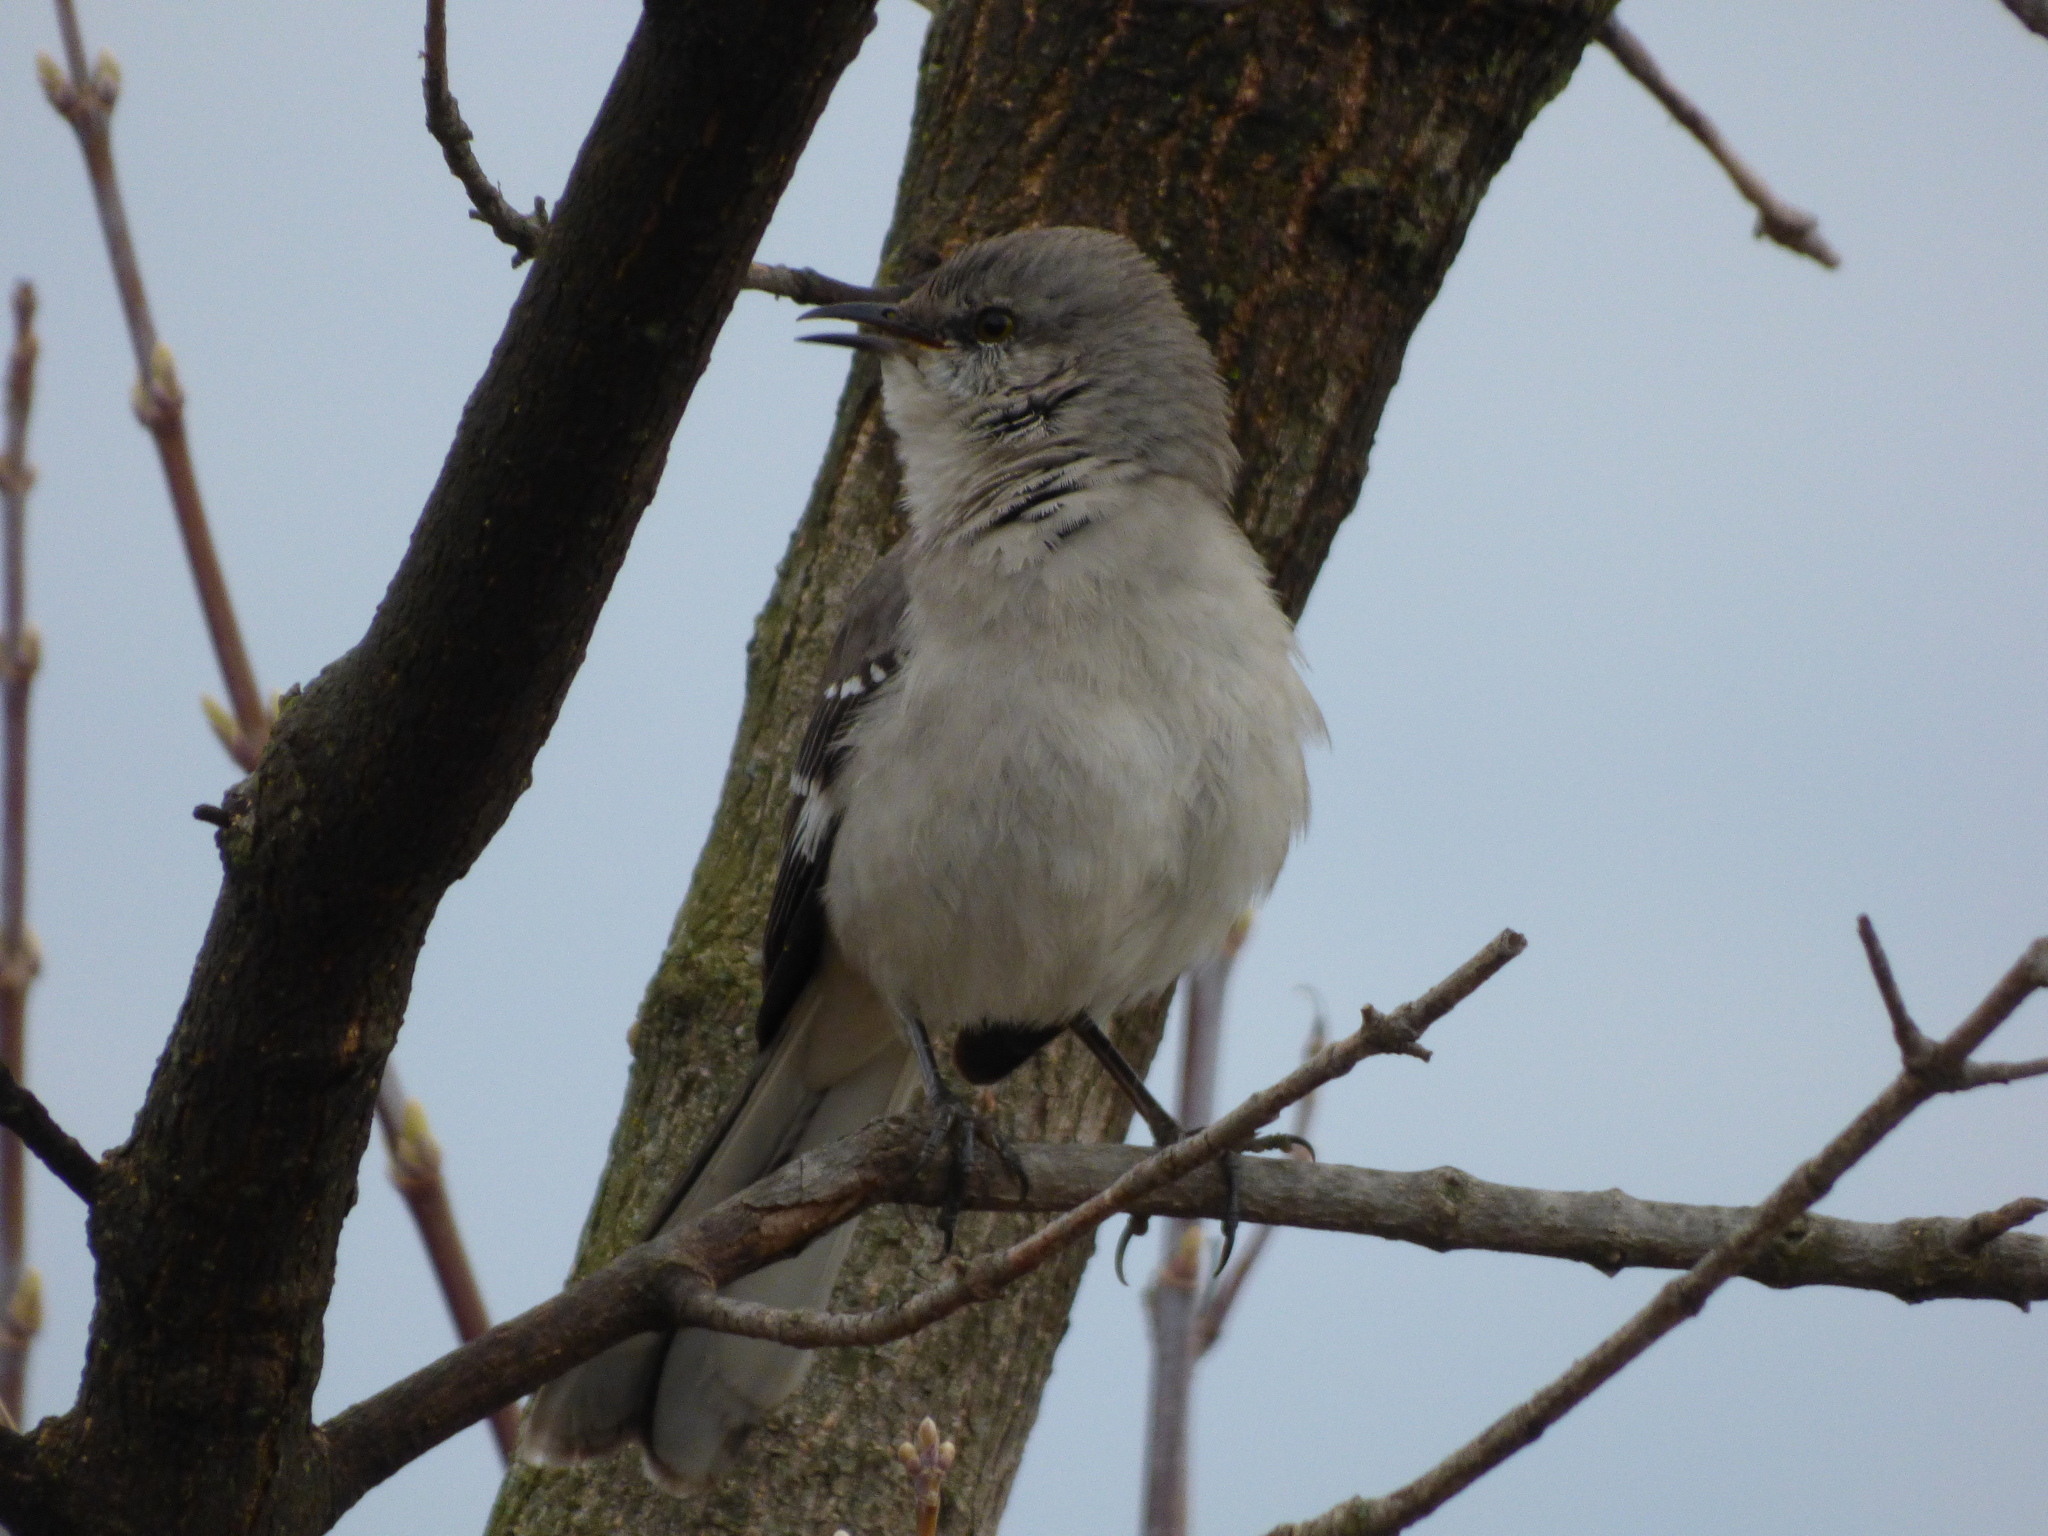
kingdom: Animalia
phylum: Chordata
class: Aves
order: Passeriformes
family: Mimidae
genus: Mimus
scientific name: Mimus polyglottos
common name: Northern mockingbird
